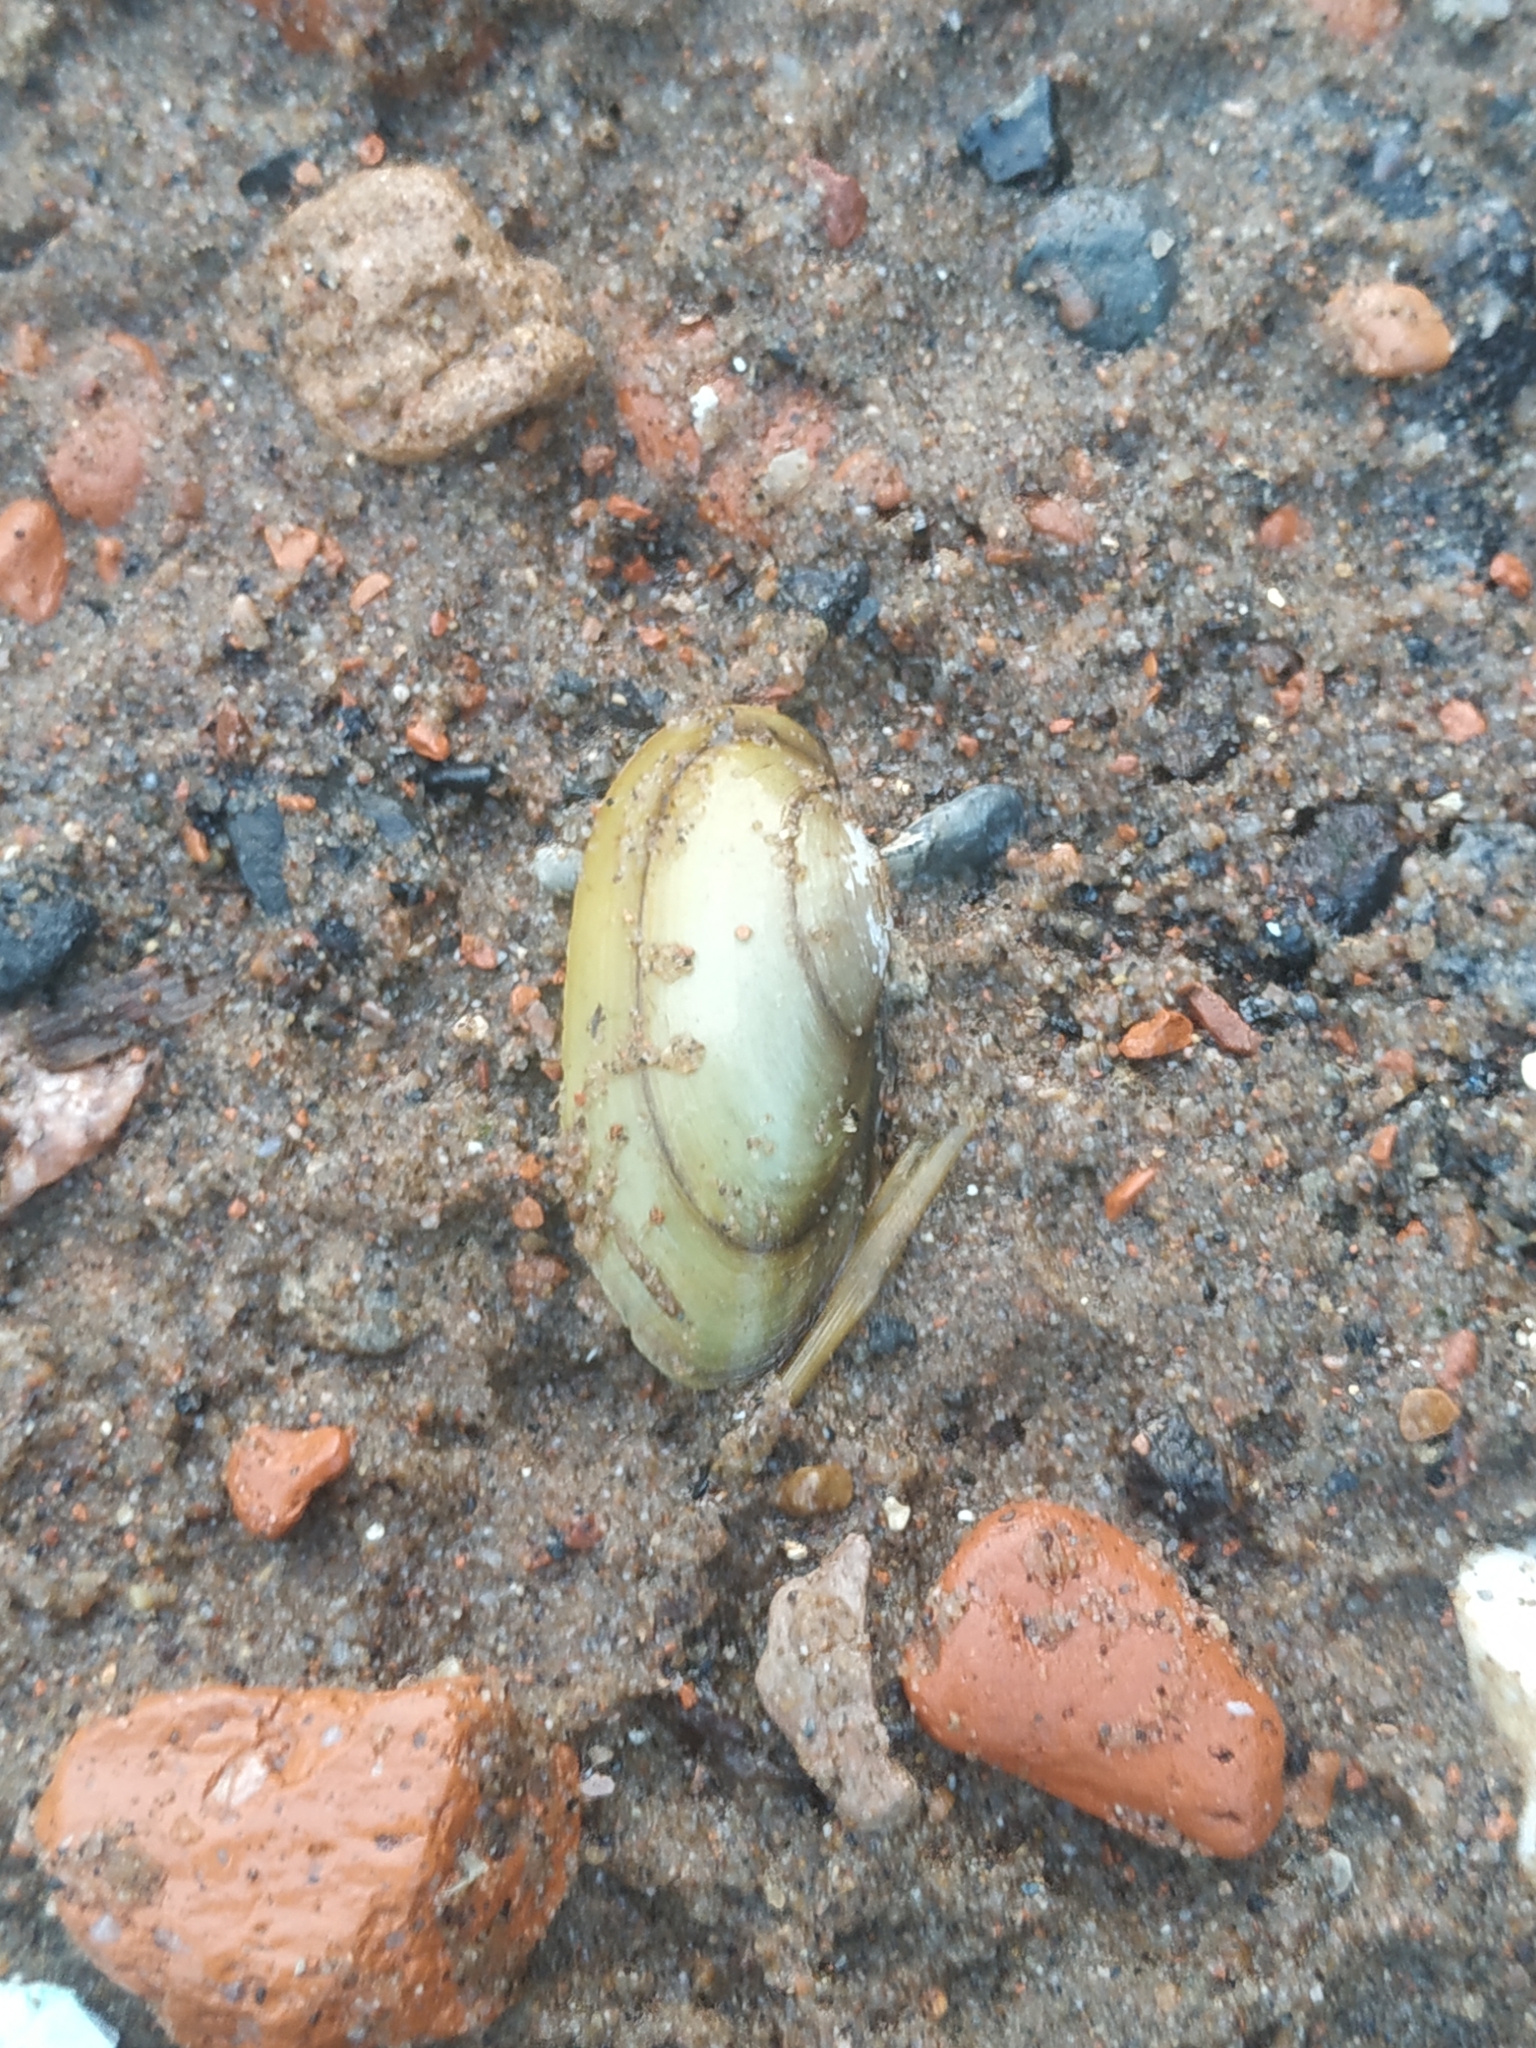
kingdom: Animalia
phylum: Mollusca
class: Bivalvia
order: Unionida
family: Unionidae
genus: Unio
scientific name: Unio pictorum
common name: Painter's mussel
